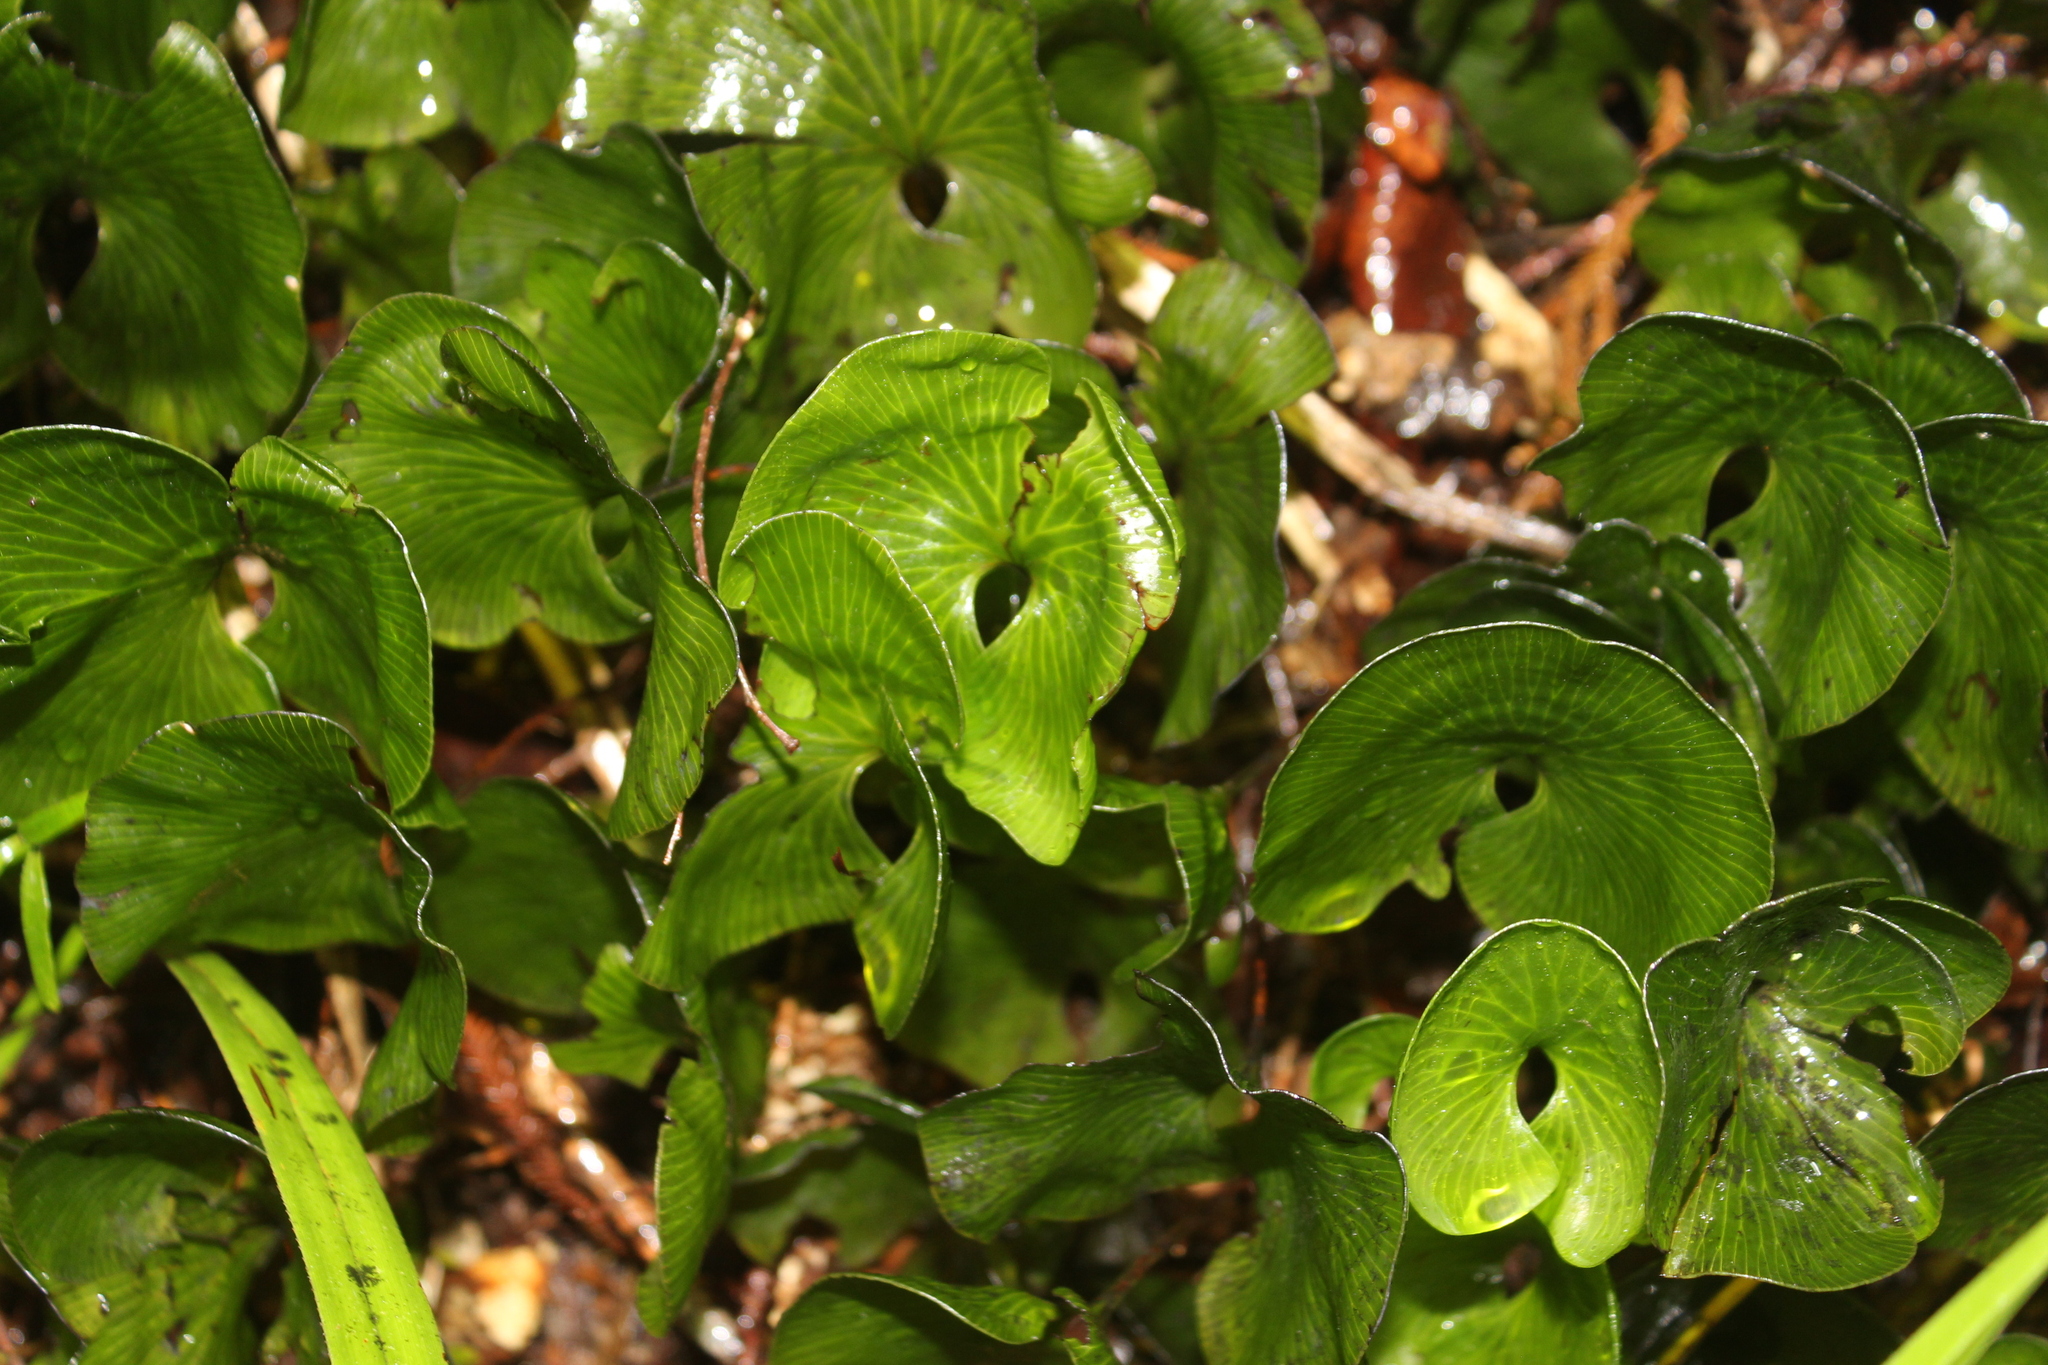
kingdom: Plantae
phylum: Tracheophyta
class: Polypodiopsida
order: Hymenophyllales
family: Hymenophyllaceae
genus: Hymenophyllum
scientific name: Hymenophyllum nephrophyllum
